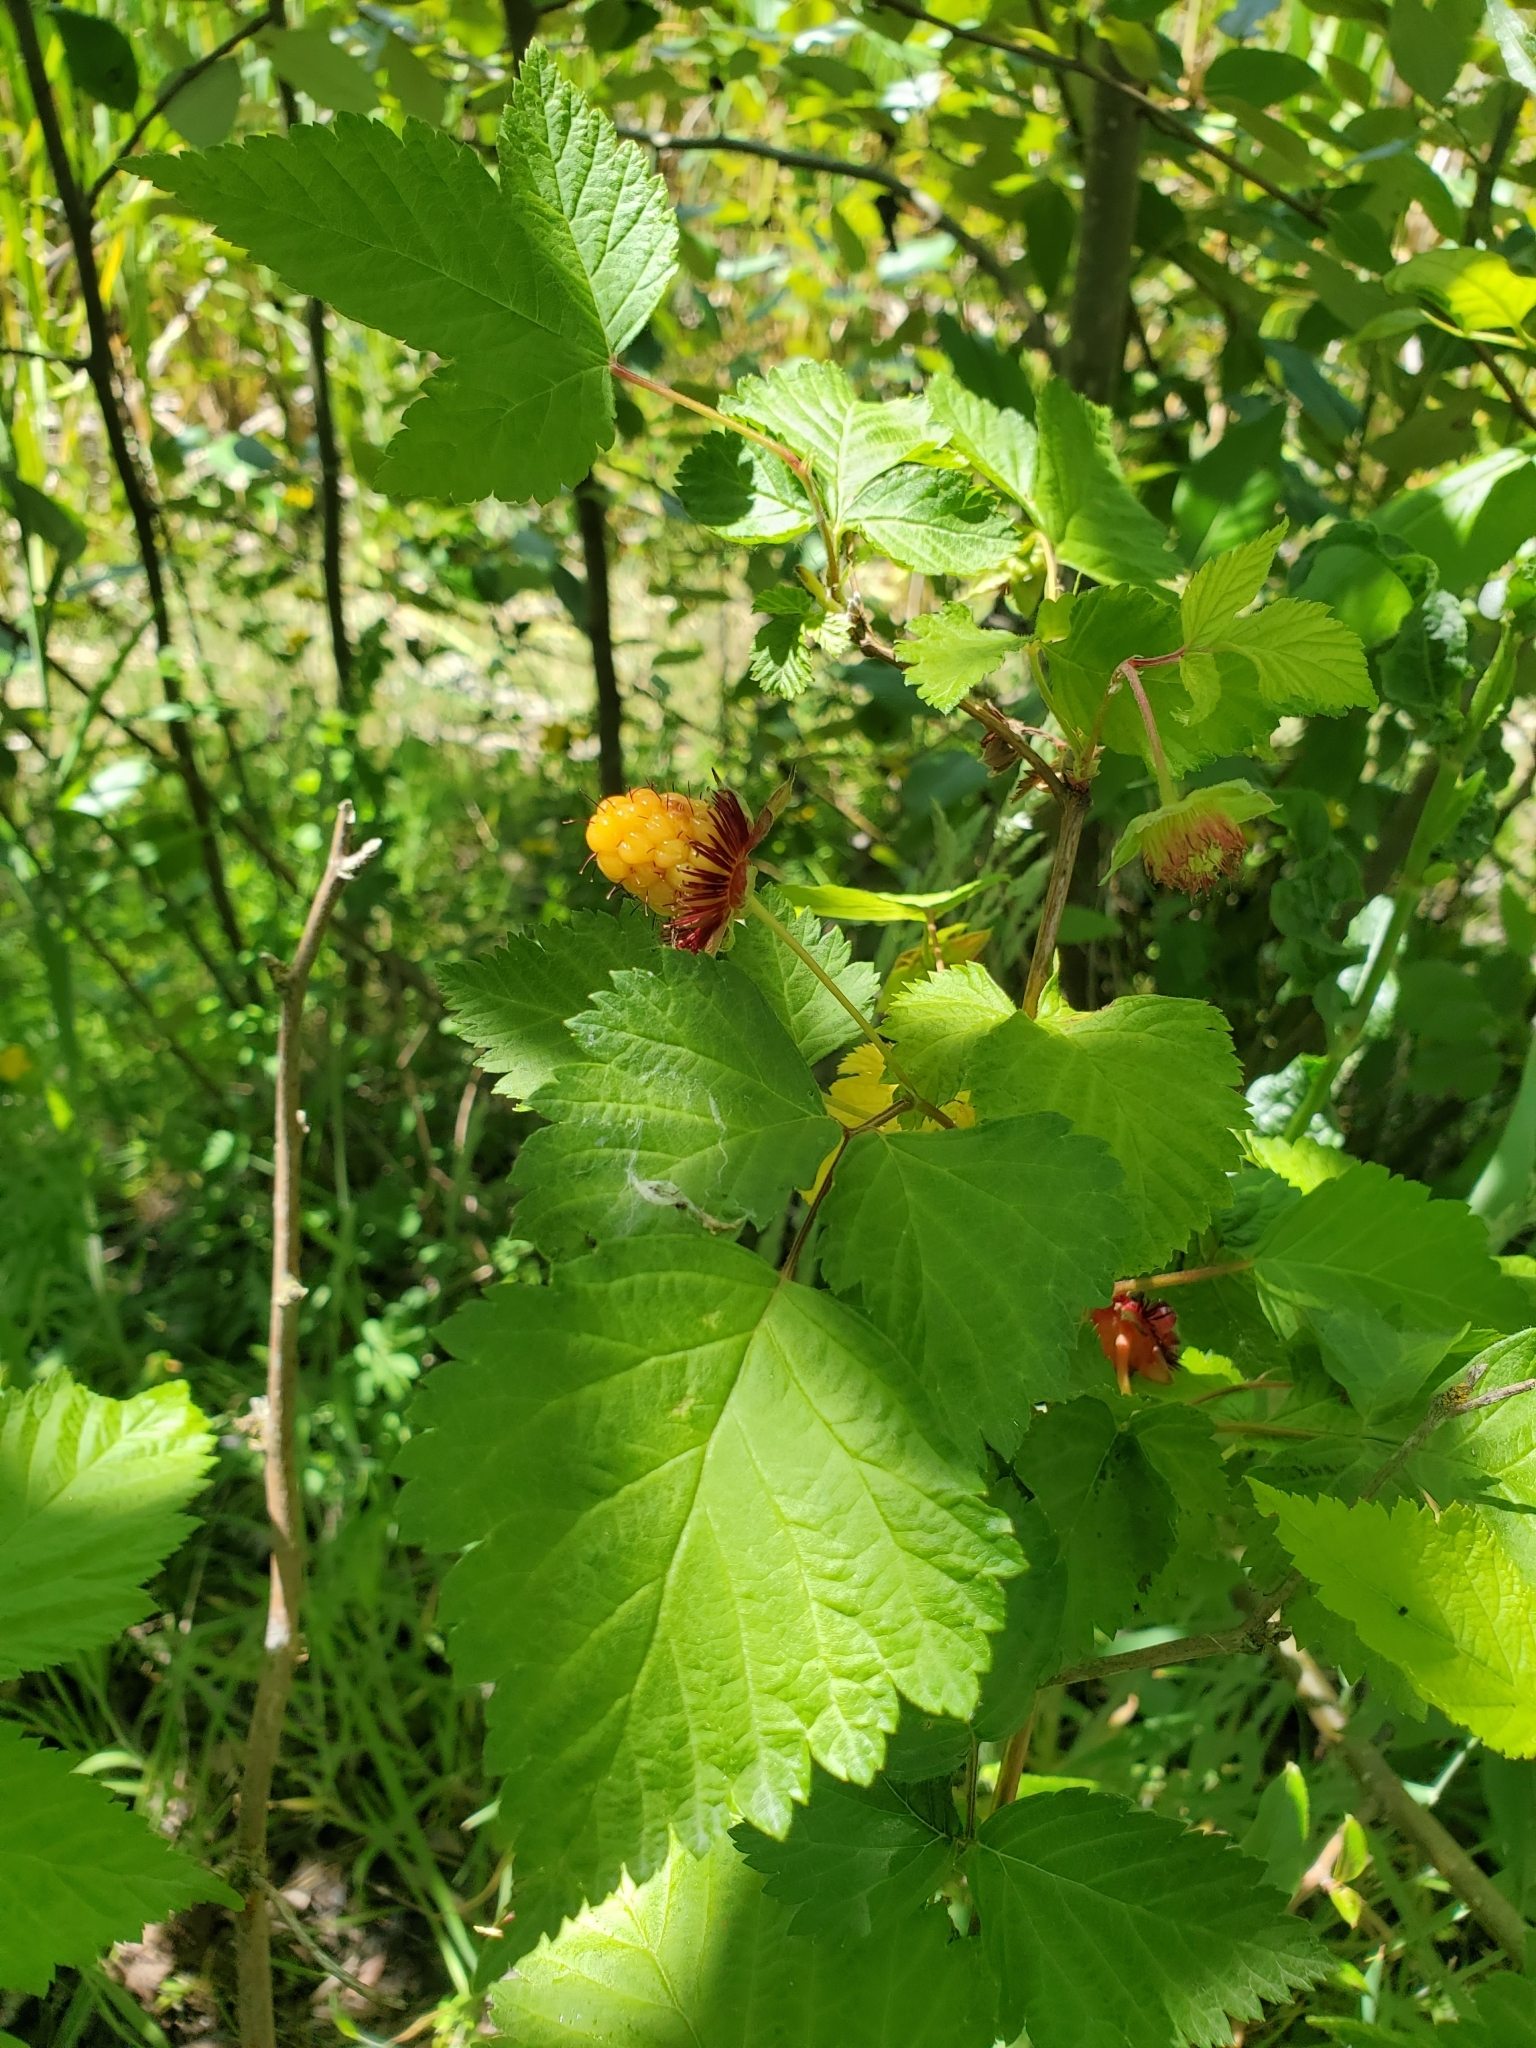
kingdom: Plantae
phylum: Tracheophyta
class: Magnoliopsida
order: Rosales
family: Rosaceae
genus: Rubus
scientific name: Rubus spectabilis
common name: Salmonberry
